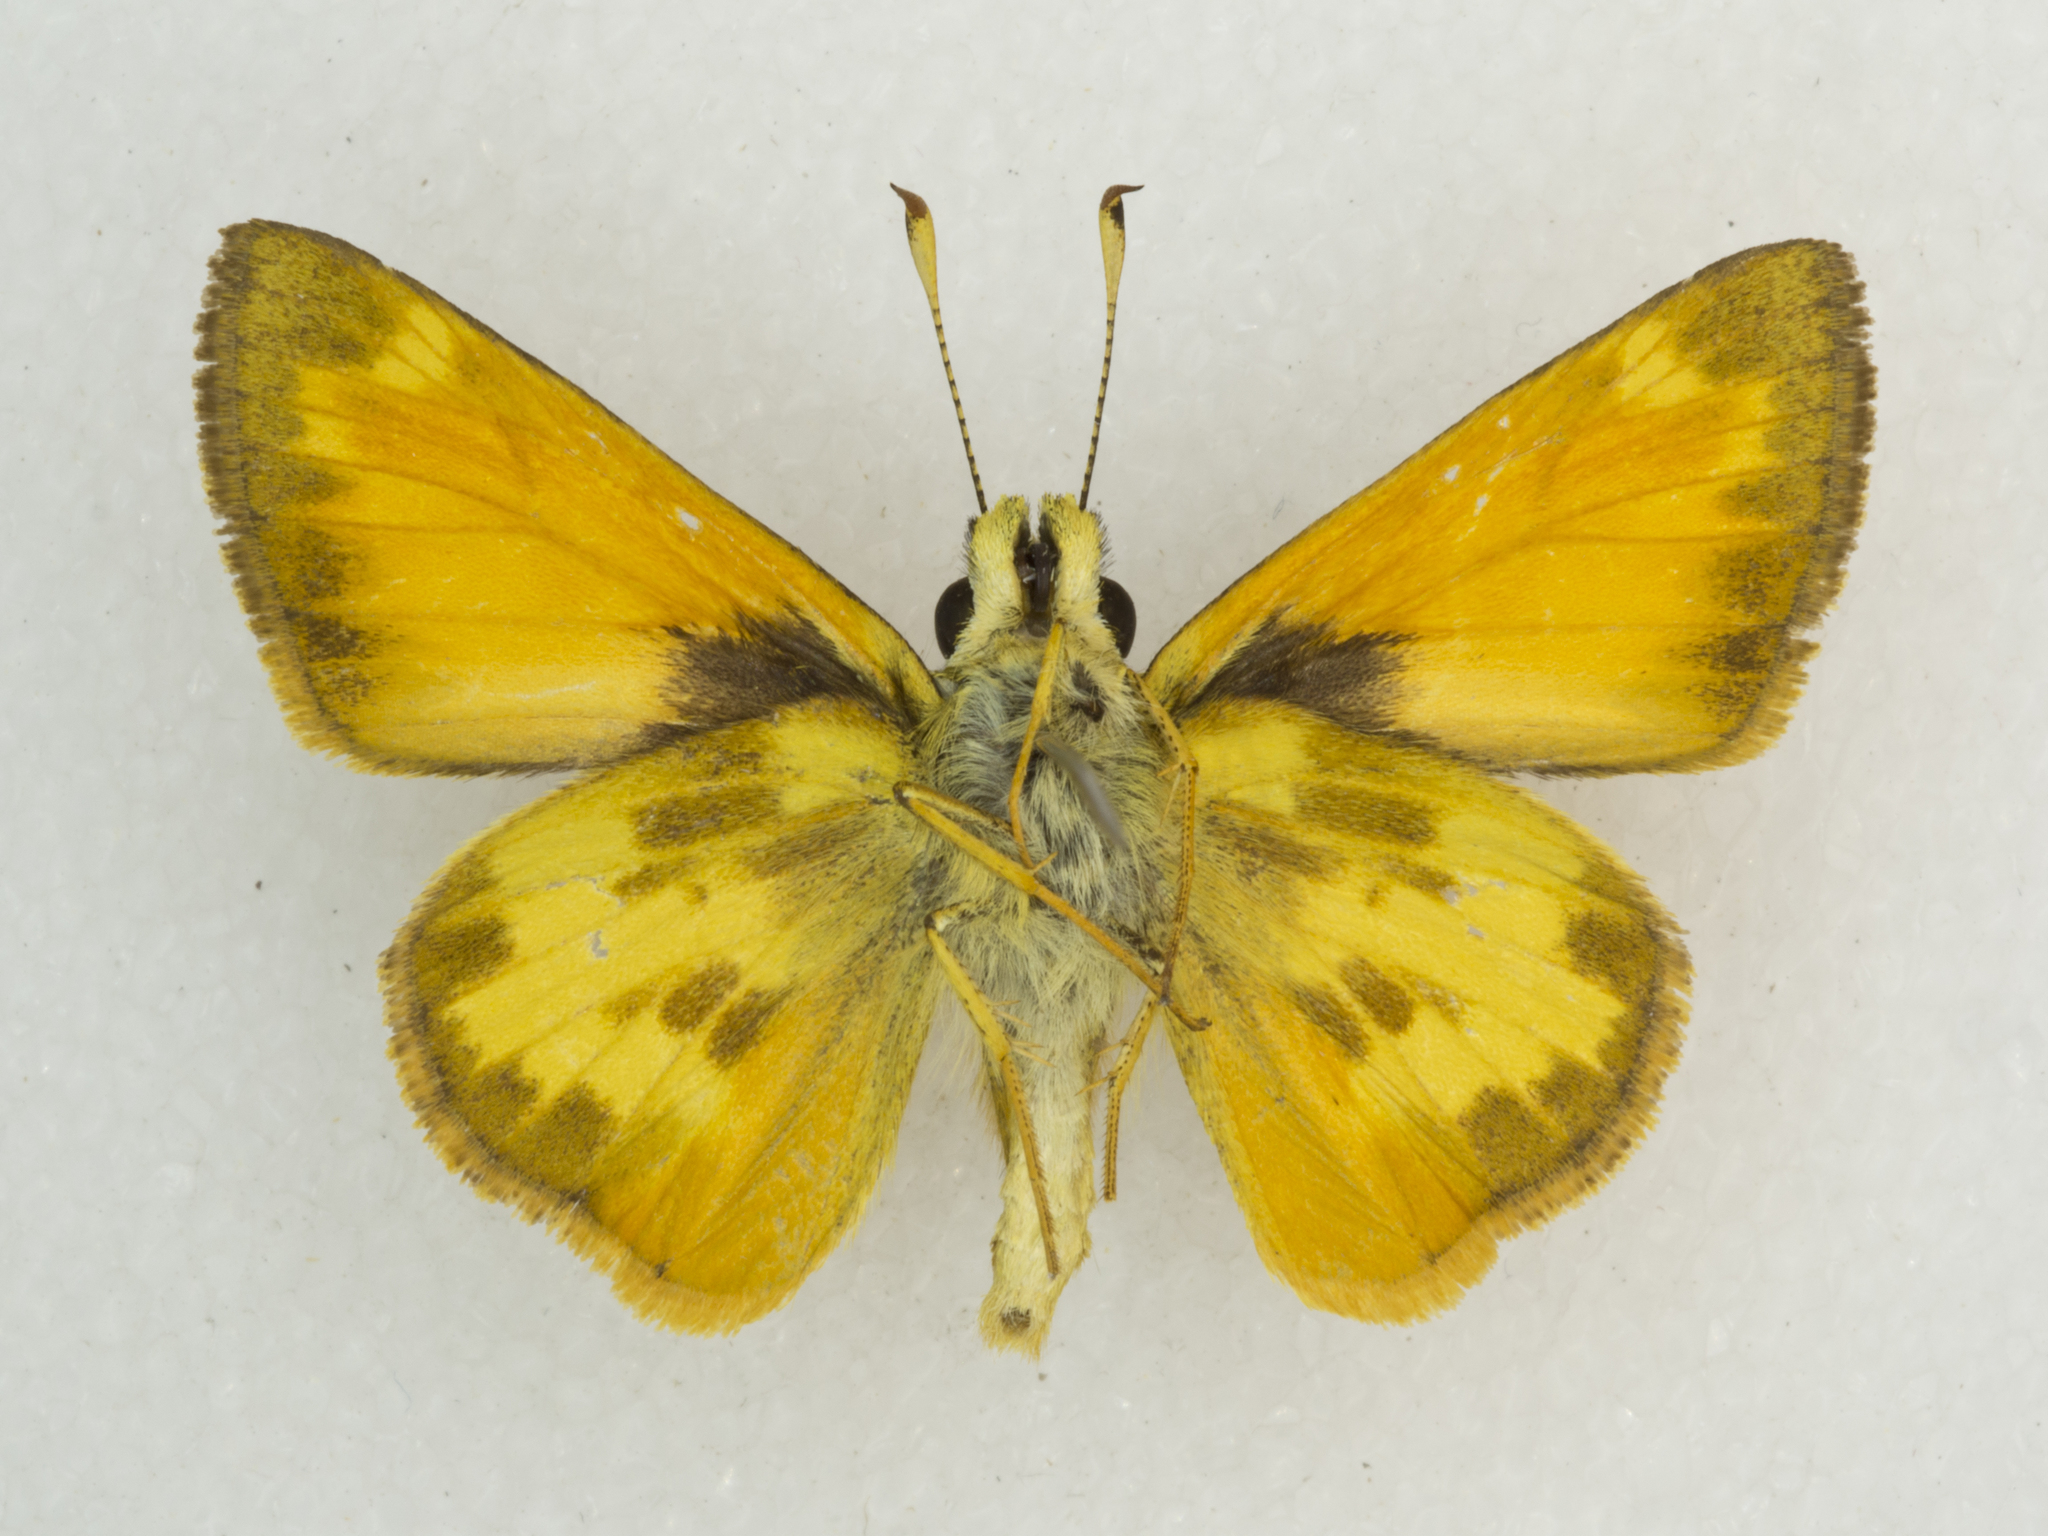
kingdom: Animalia
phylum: Arthropoda
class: Insecta
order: Lepidoptera
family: Hesperiidae
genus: Lon
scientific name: Lon taxiles
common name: Taxiles skipper
